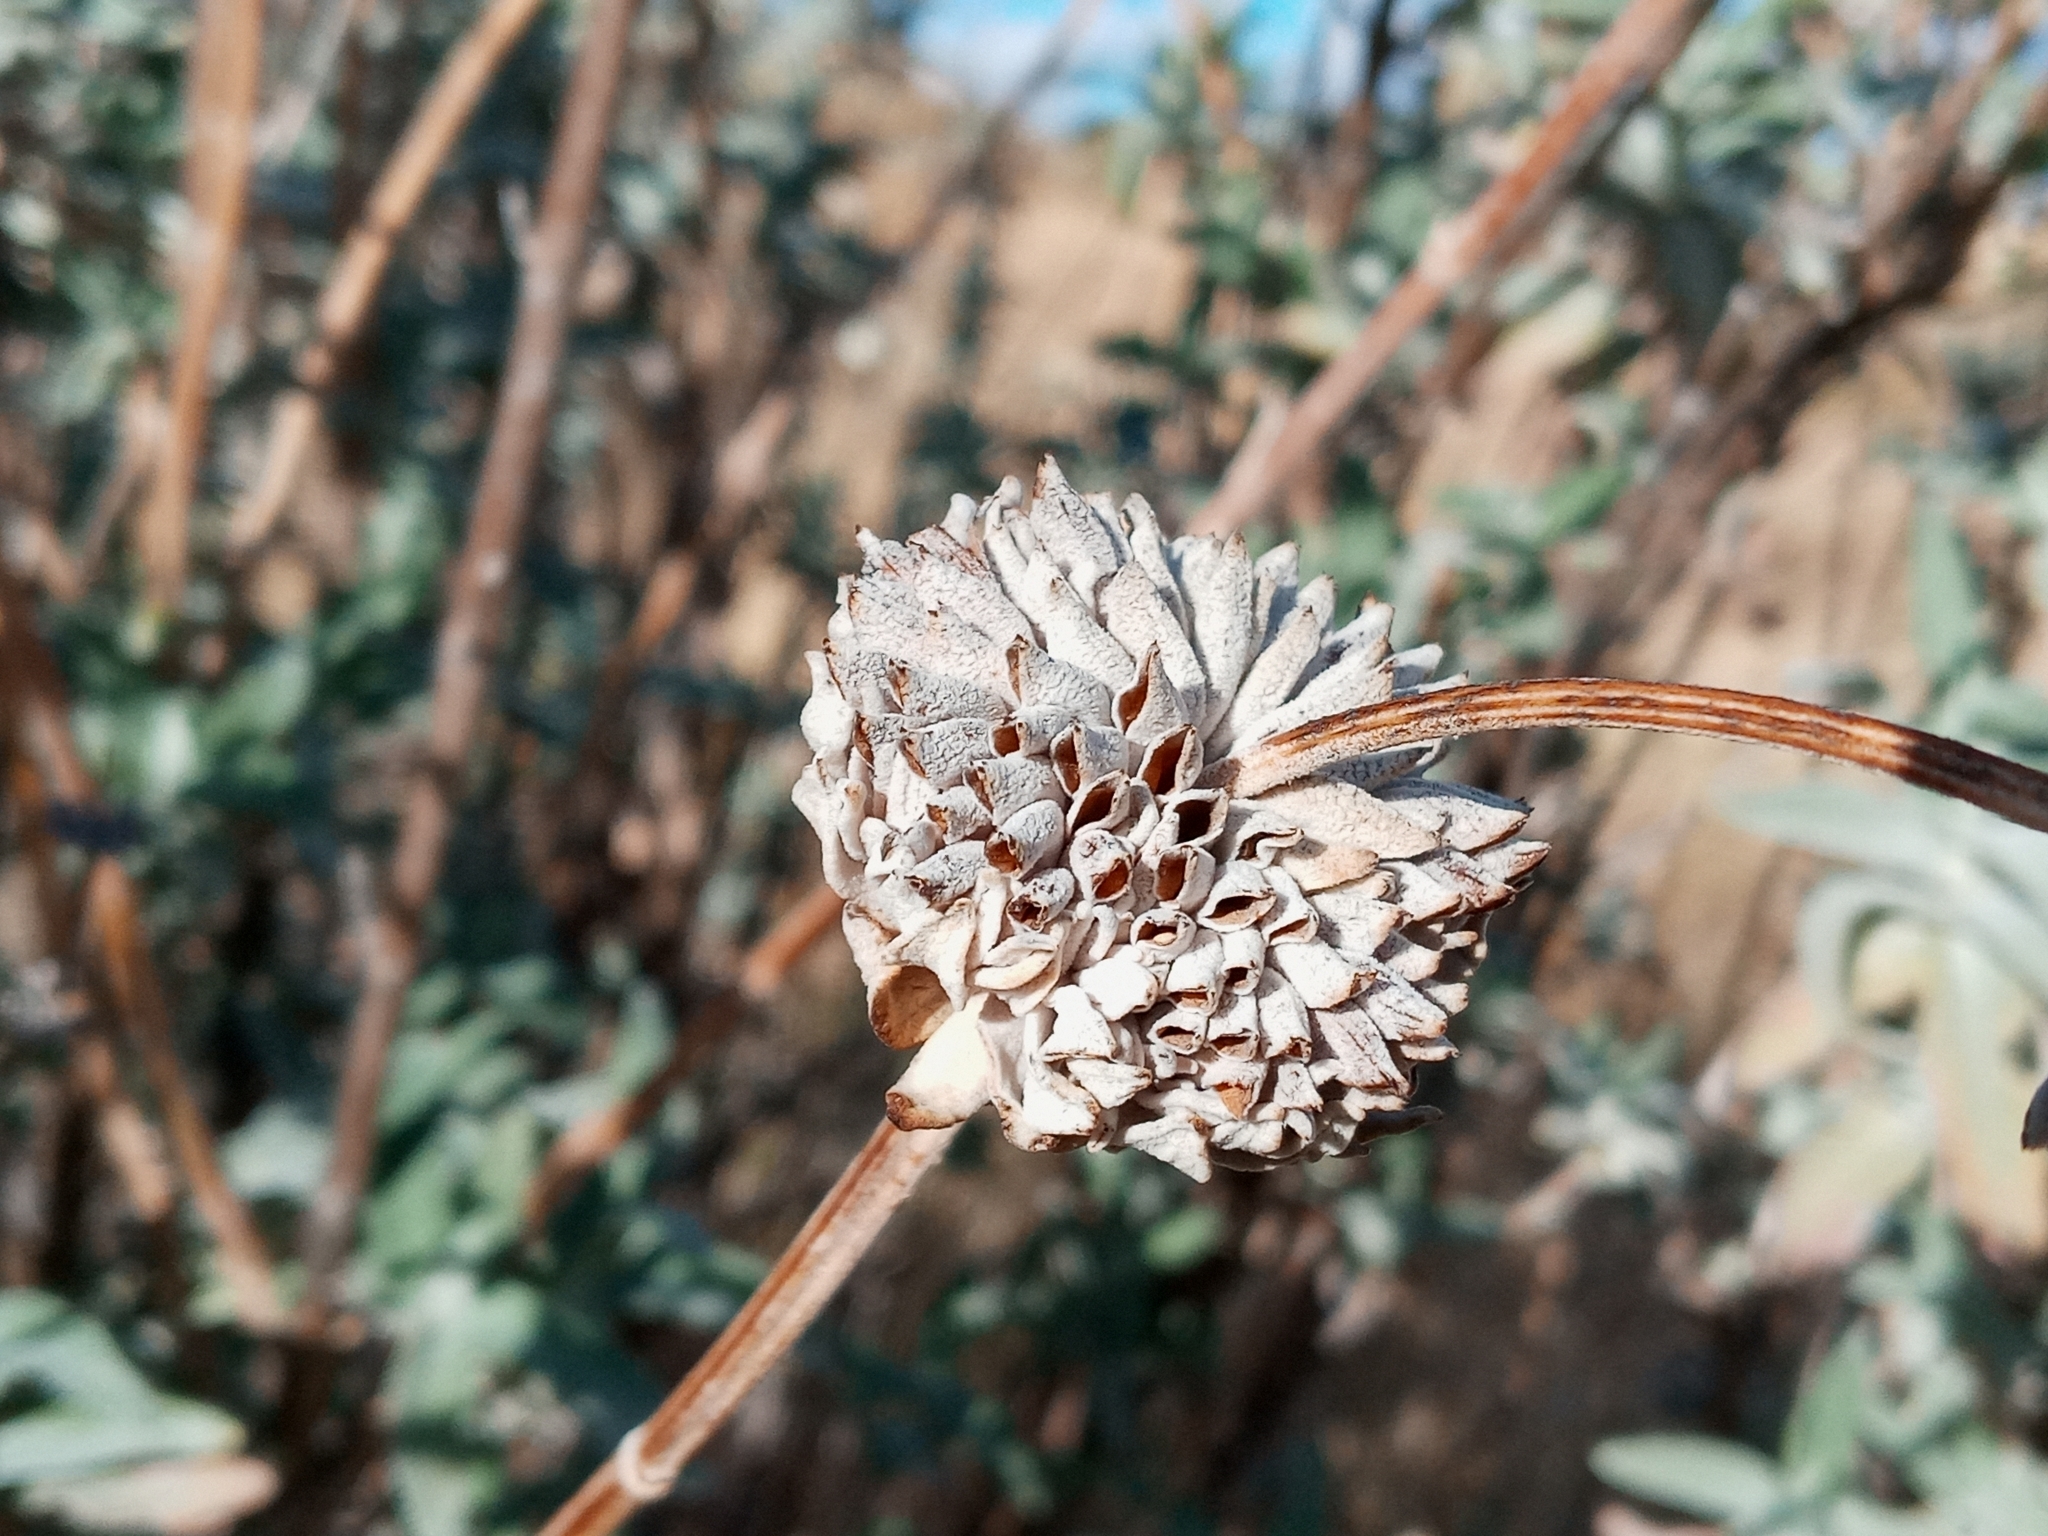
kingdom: Plantae
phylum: Tracheophyta
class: Magnoliopsida
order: Lamiales
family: Lamiaceae
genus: Salvia
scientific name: Salvia leucophylla
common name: Purple sage
